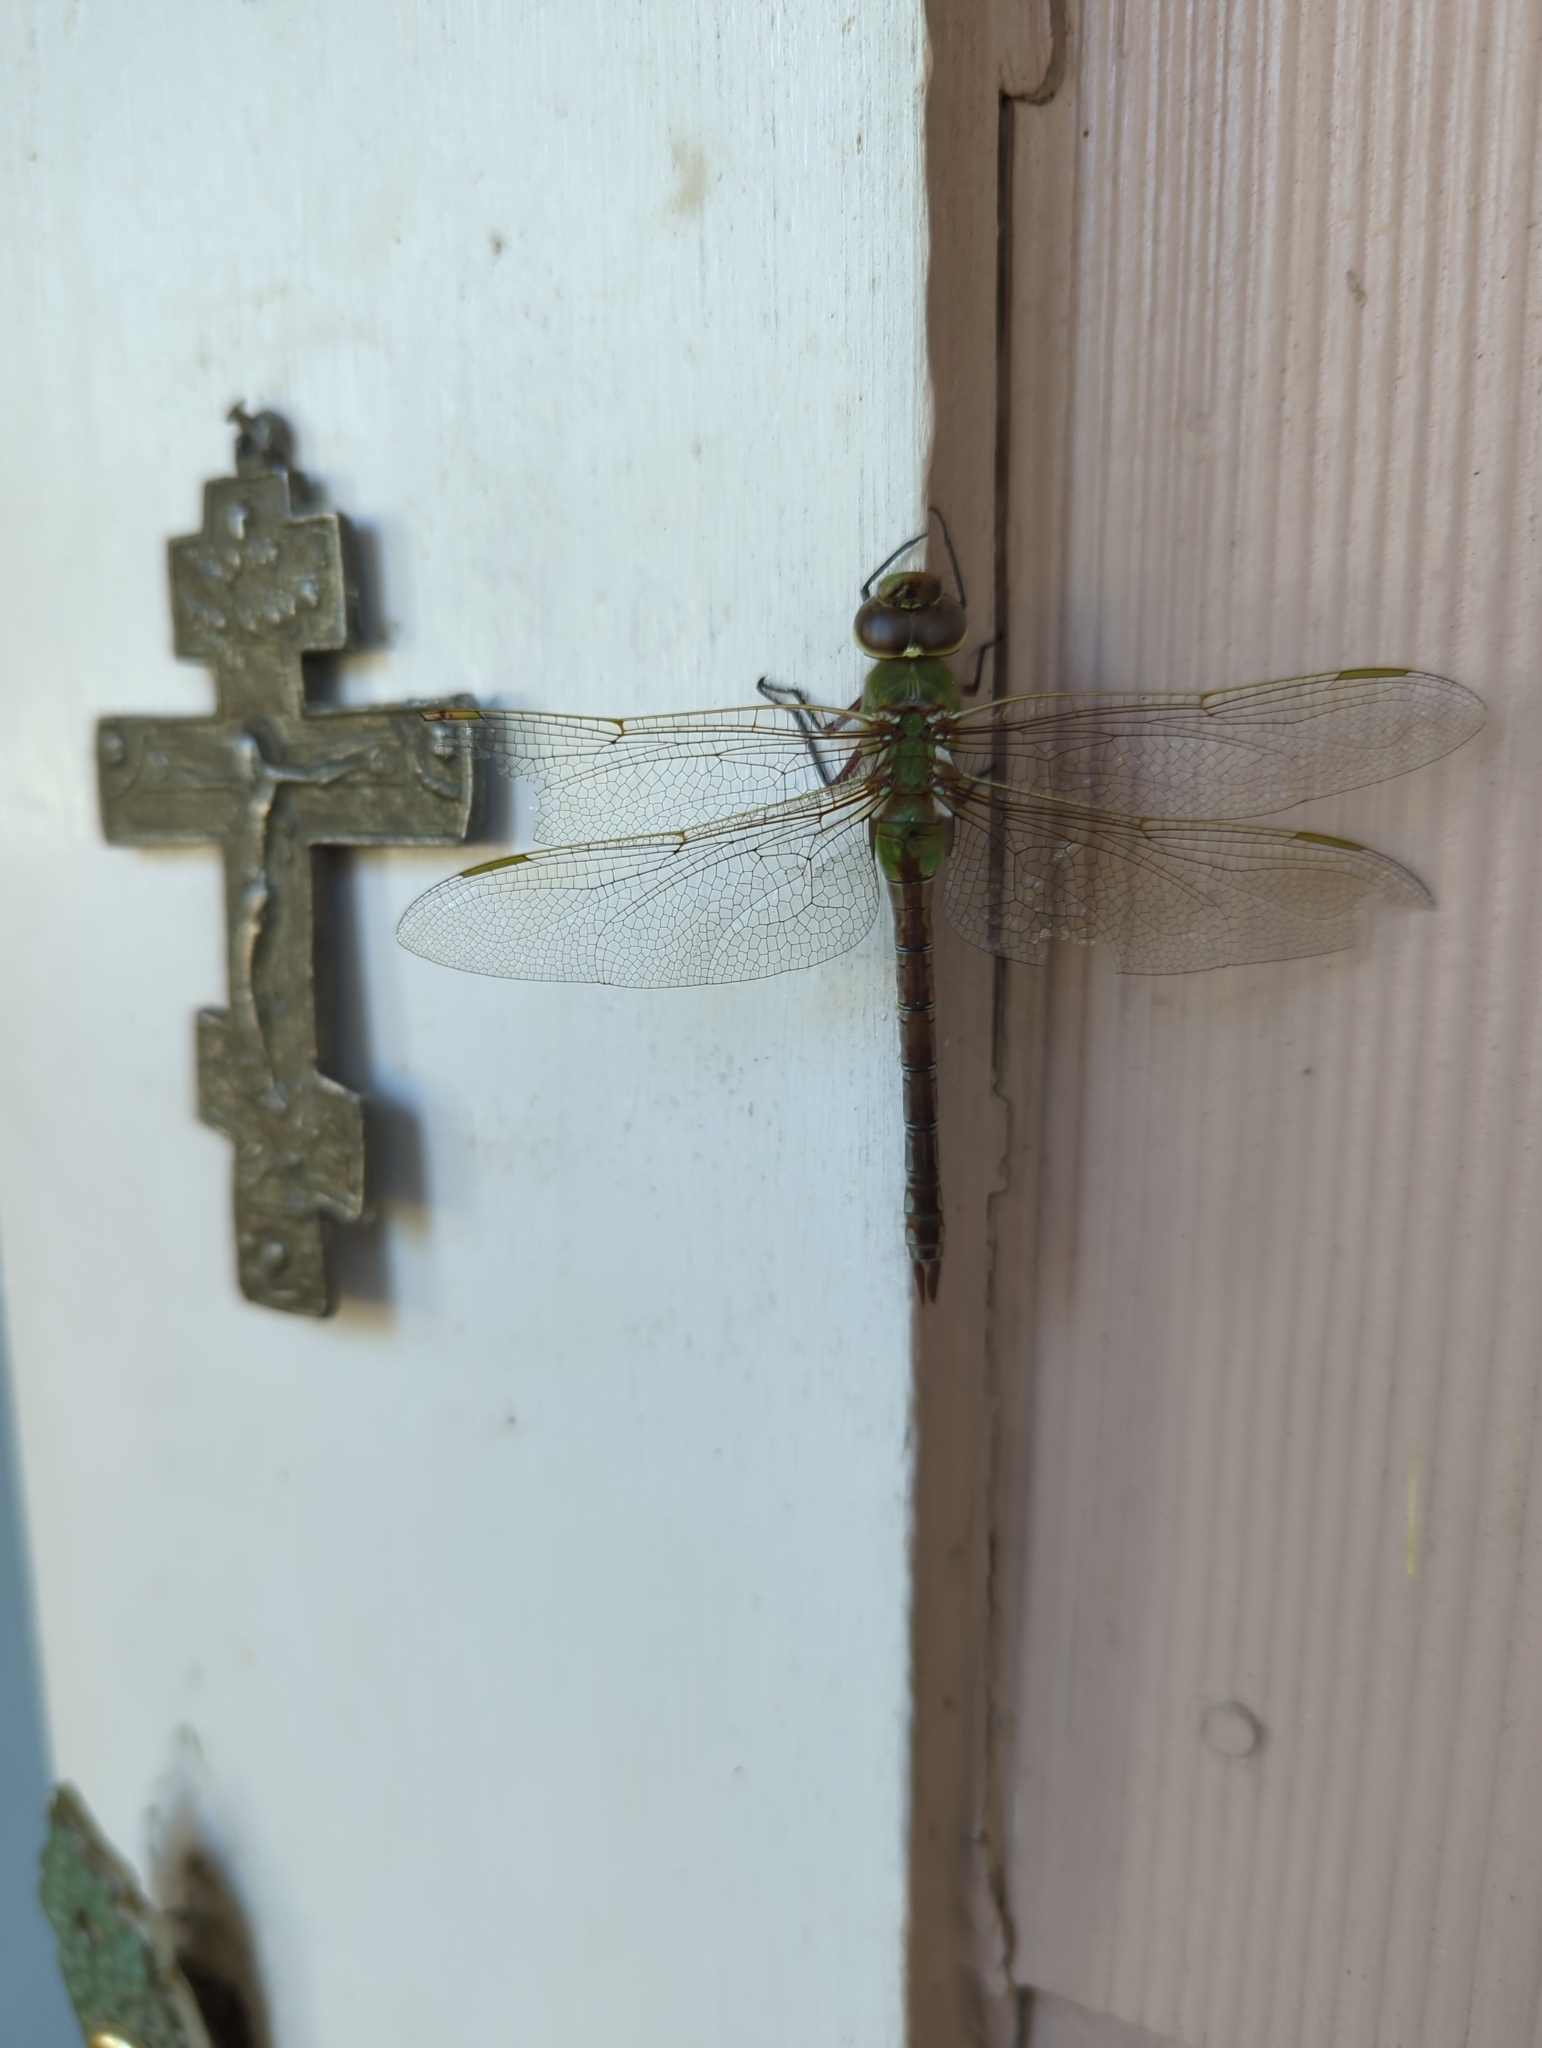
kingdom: Animalia
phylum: Arthropoda
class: Insecta
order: Odonata
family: Aeshnidae
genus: Anax
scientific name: Anax junius
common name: Common green darner
